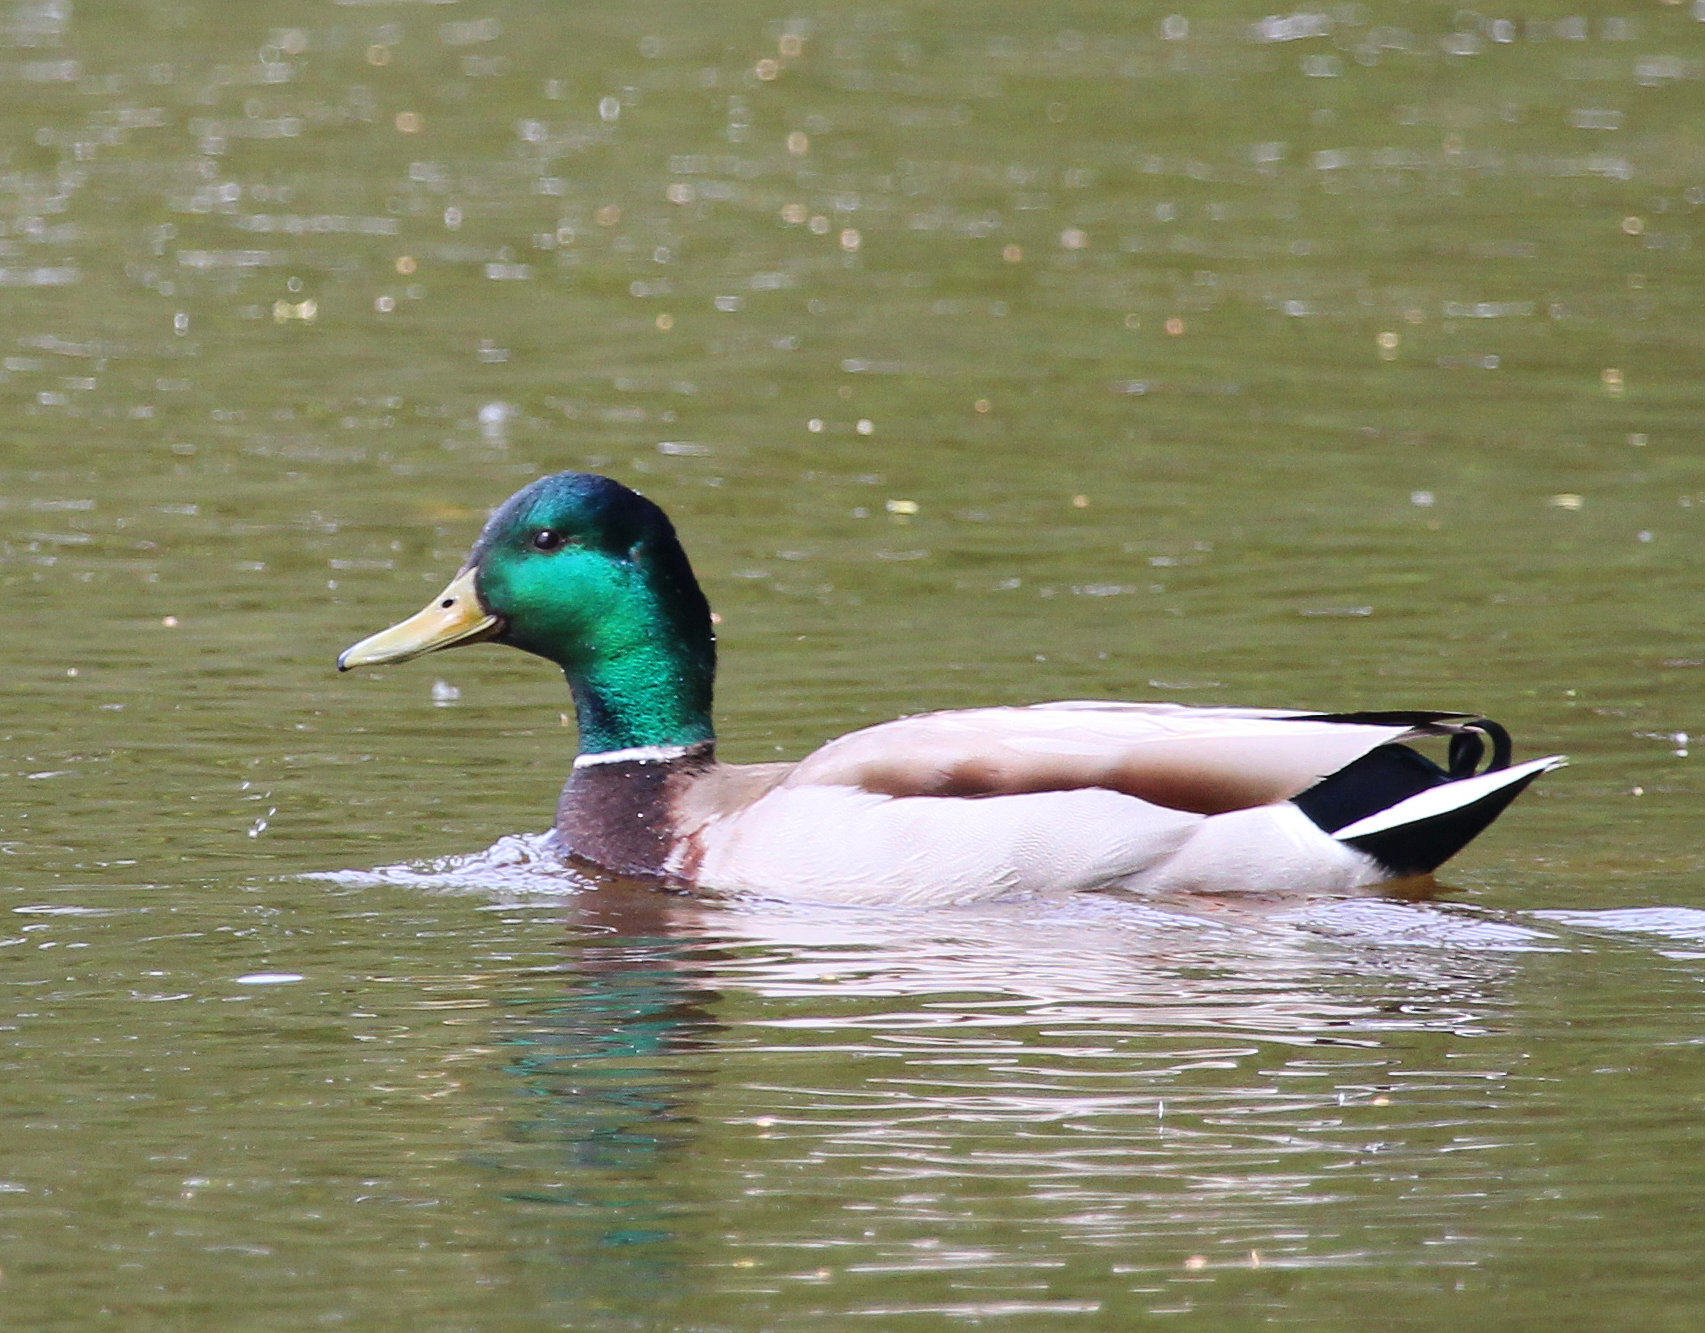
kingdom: Animalia
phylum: Chordata
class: Aves
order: Anseriformes
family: Anatidae
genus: Anas
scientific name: Anas platyrhynchos
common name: Mallard
